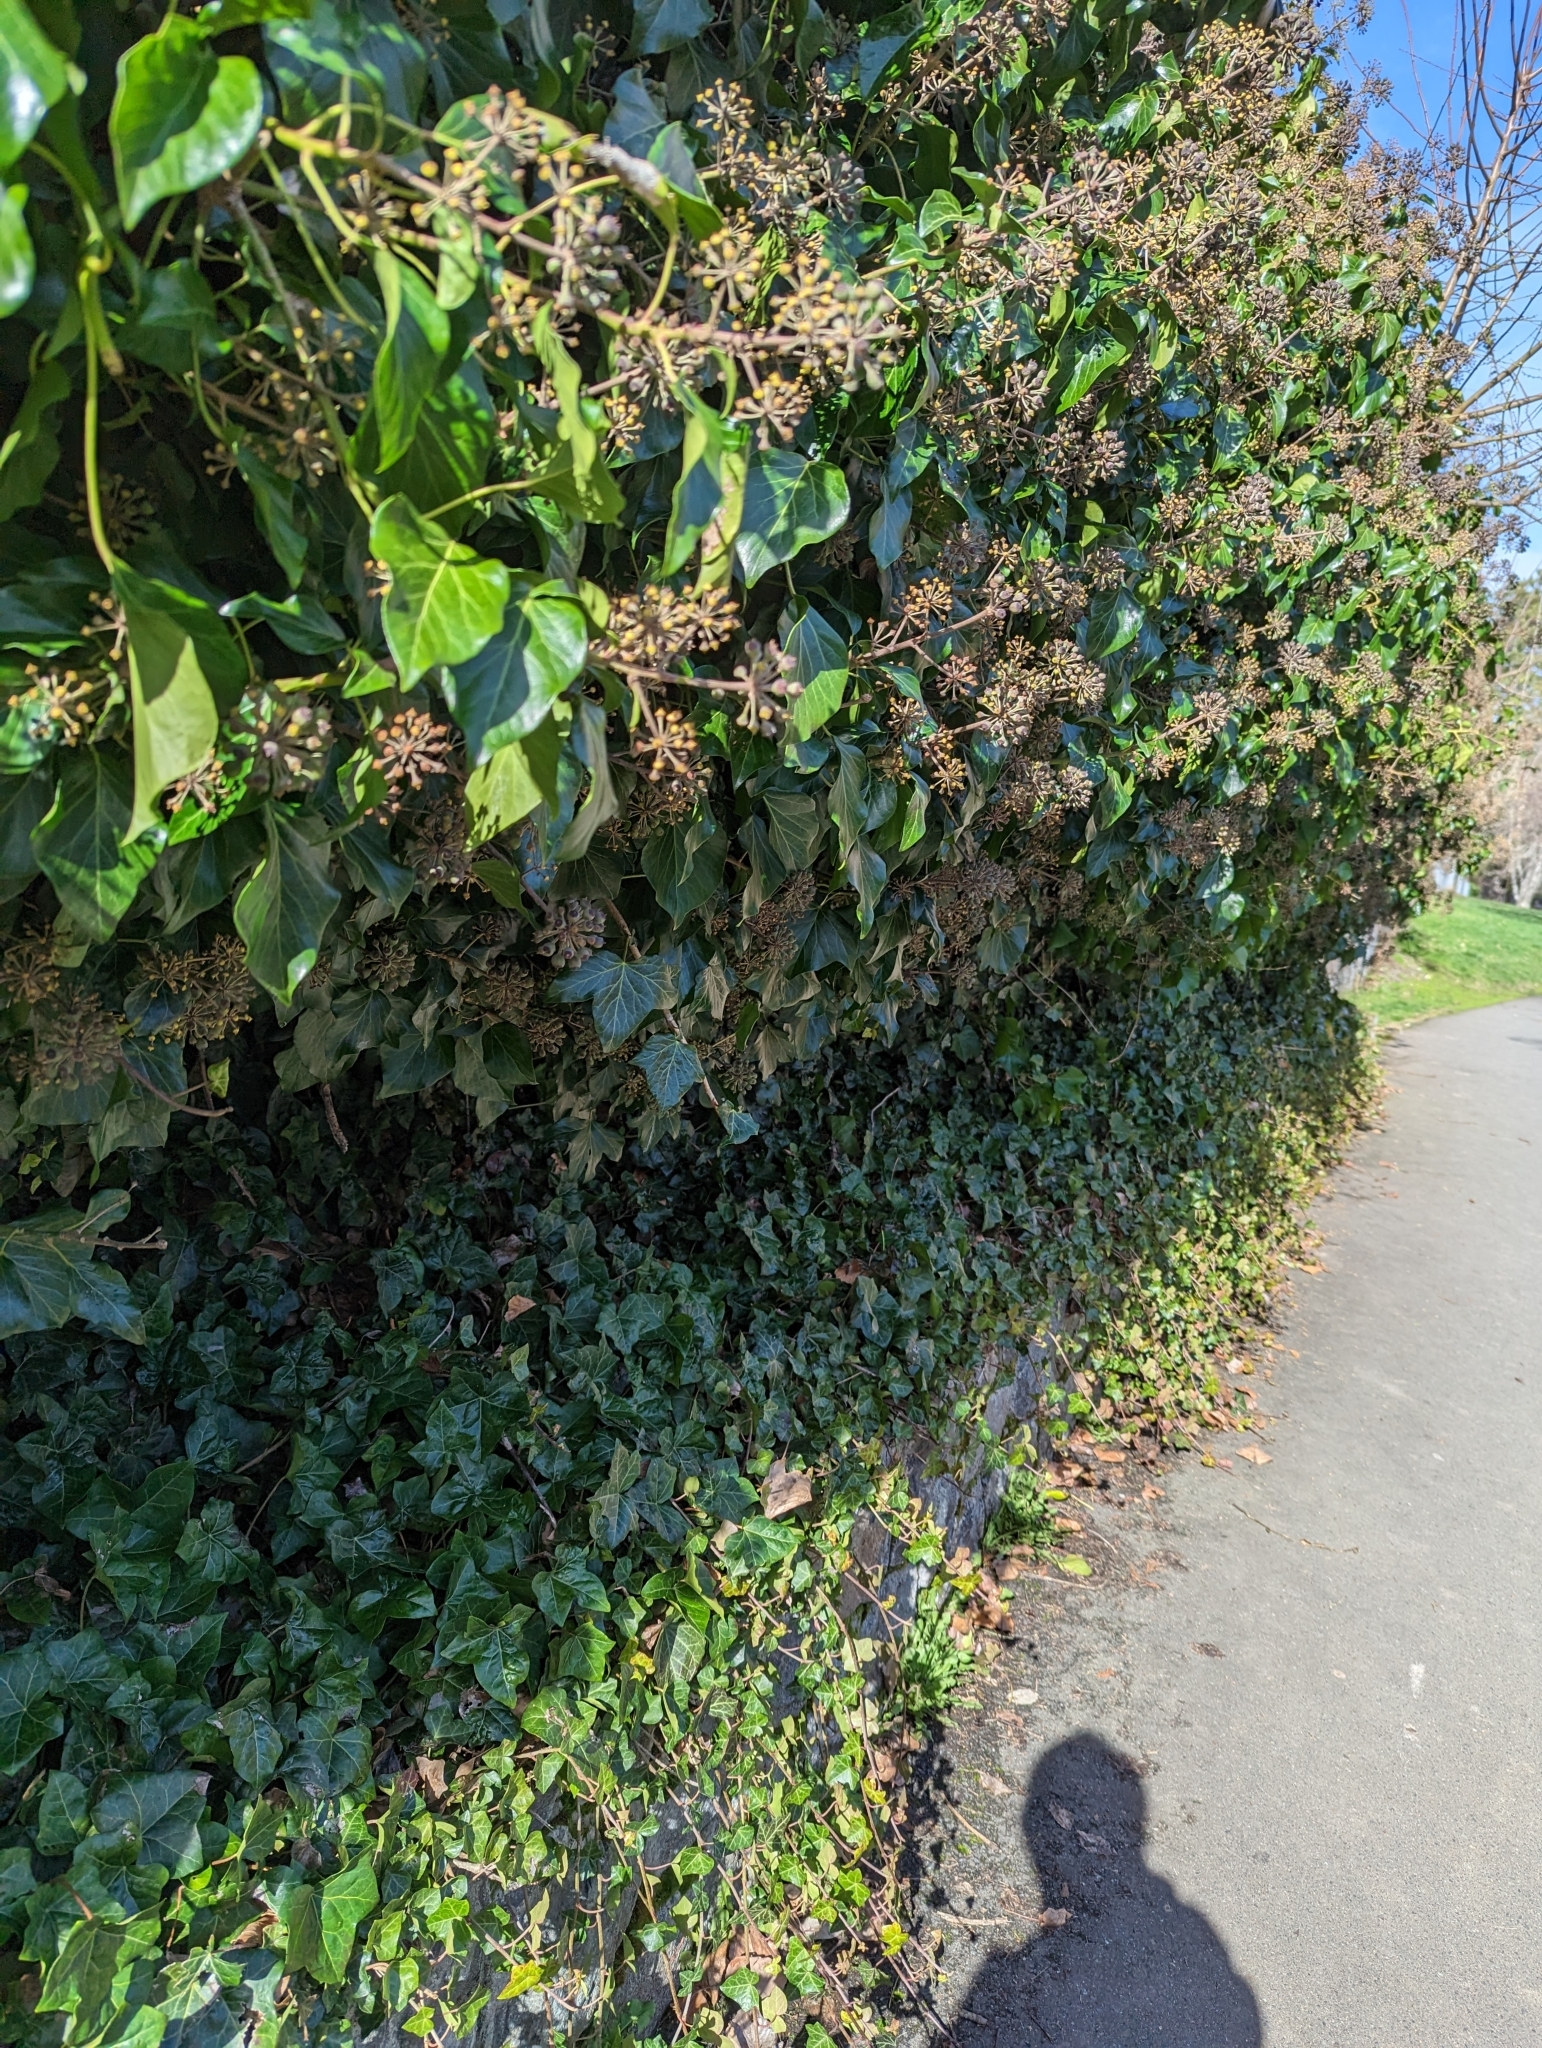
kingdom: Plantae
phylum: Tracheophyta
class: Magnoliopsida
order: Apiales
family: Araliaceae
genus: Hedera
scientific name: Hedera helix
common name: Ivy
